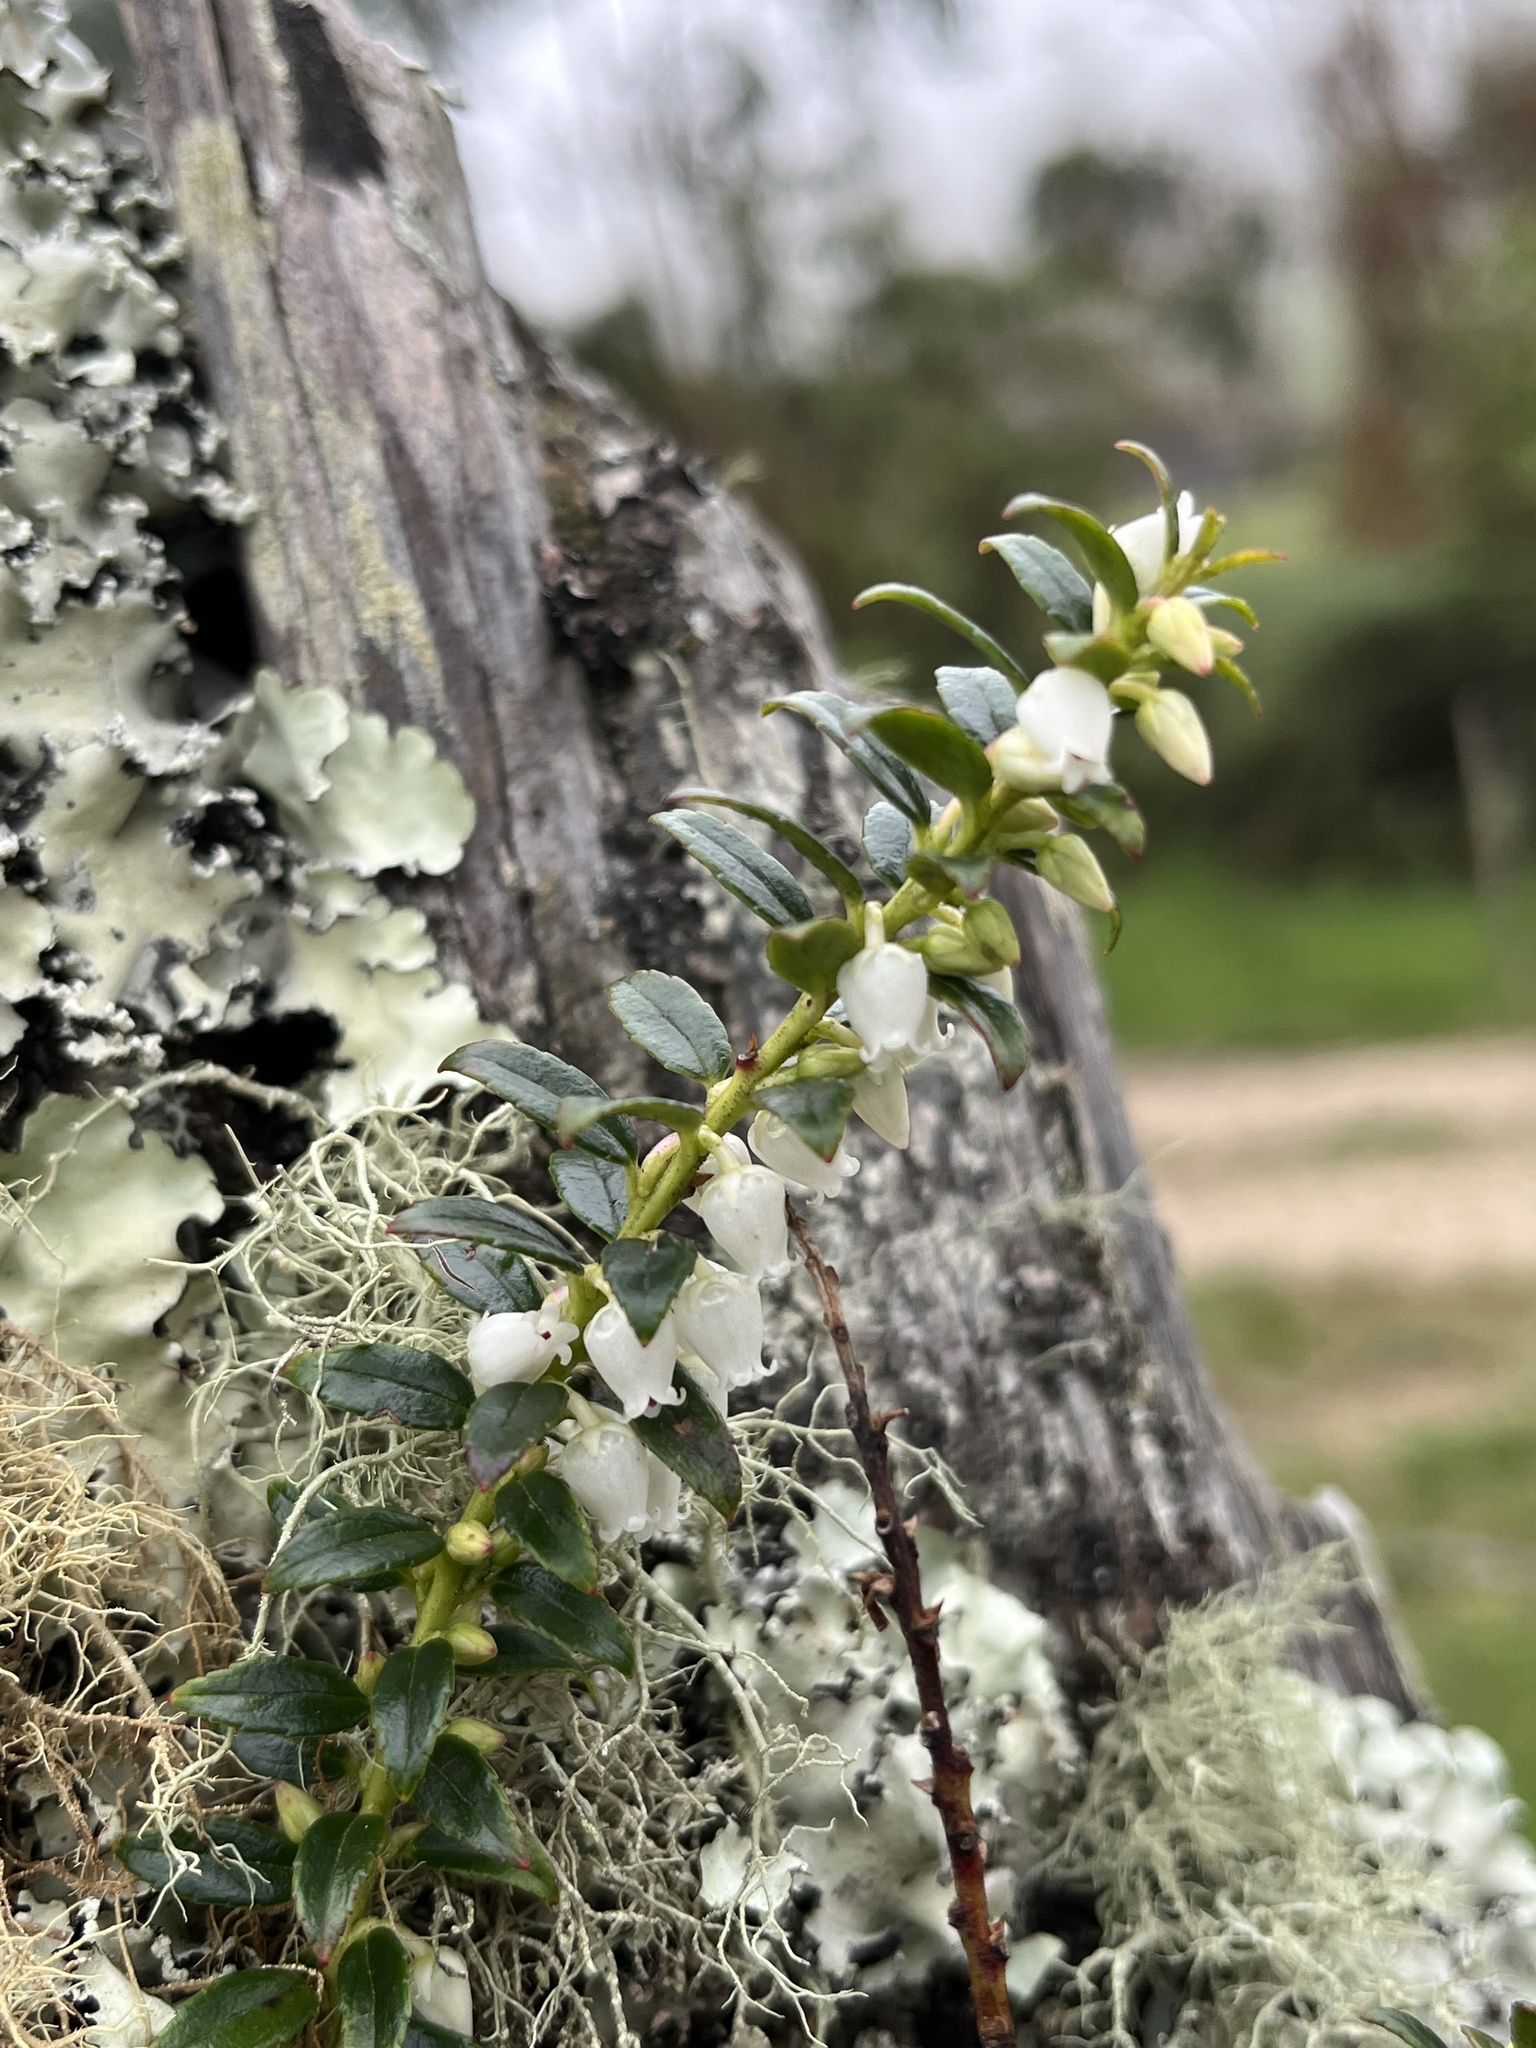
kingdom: Plantae
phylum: Tracheophyta
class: Magnoliopsida
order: Ericales
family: Ericaceae
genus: Gaultheria
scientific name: Gaultheria myrsinoides
